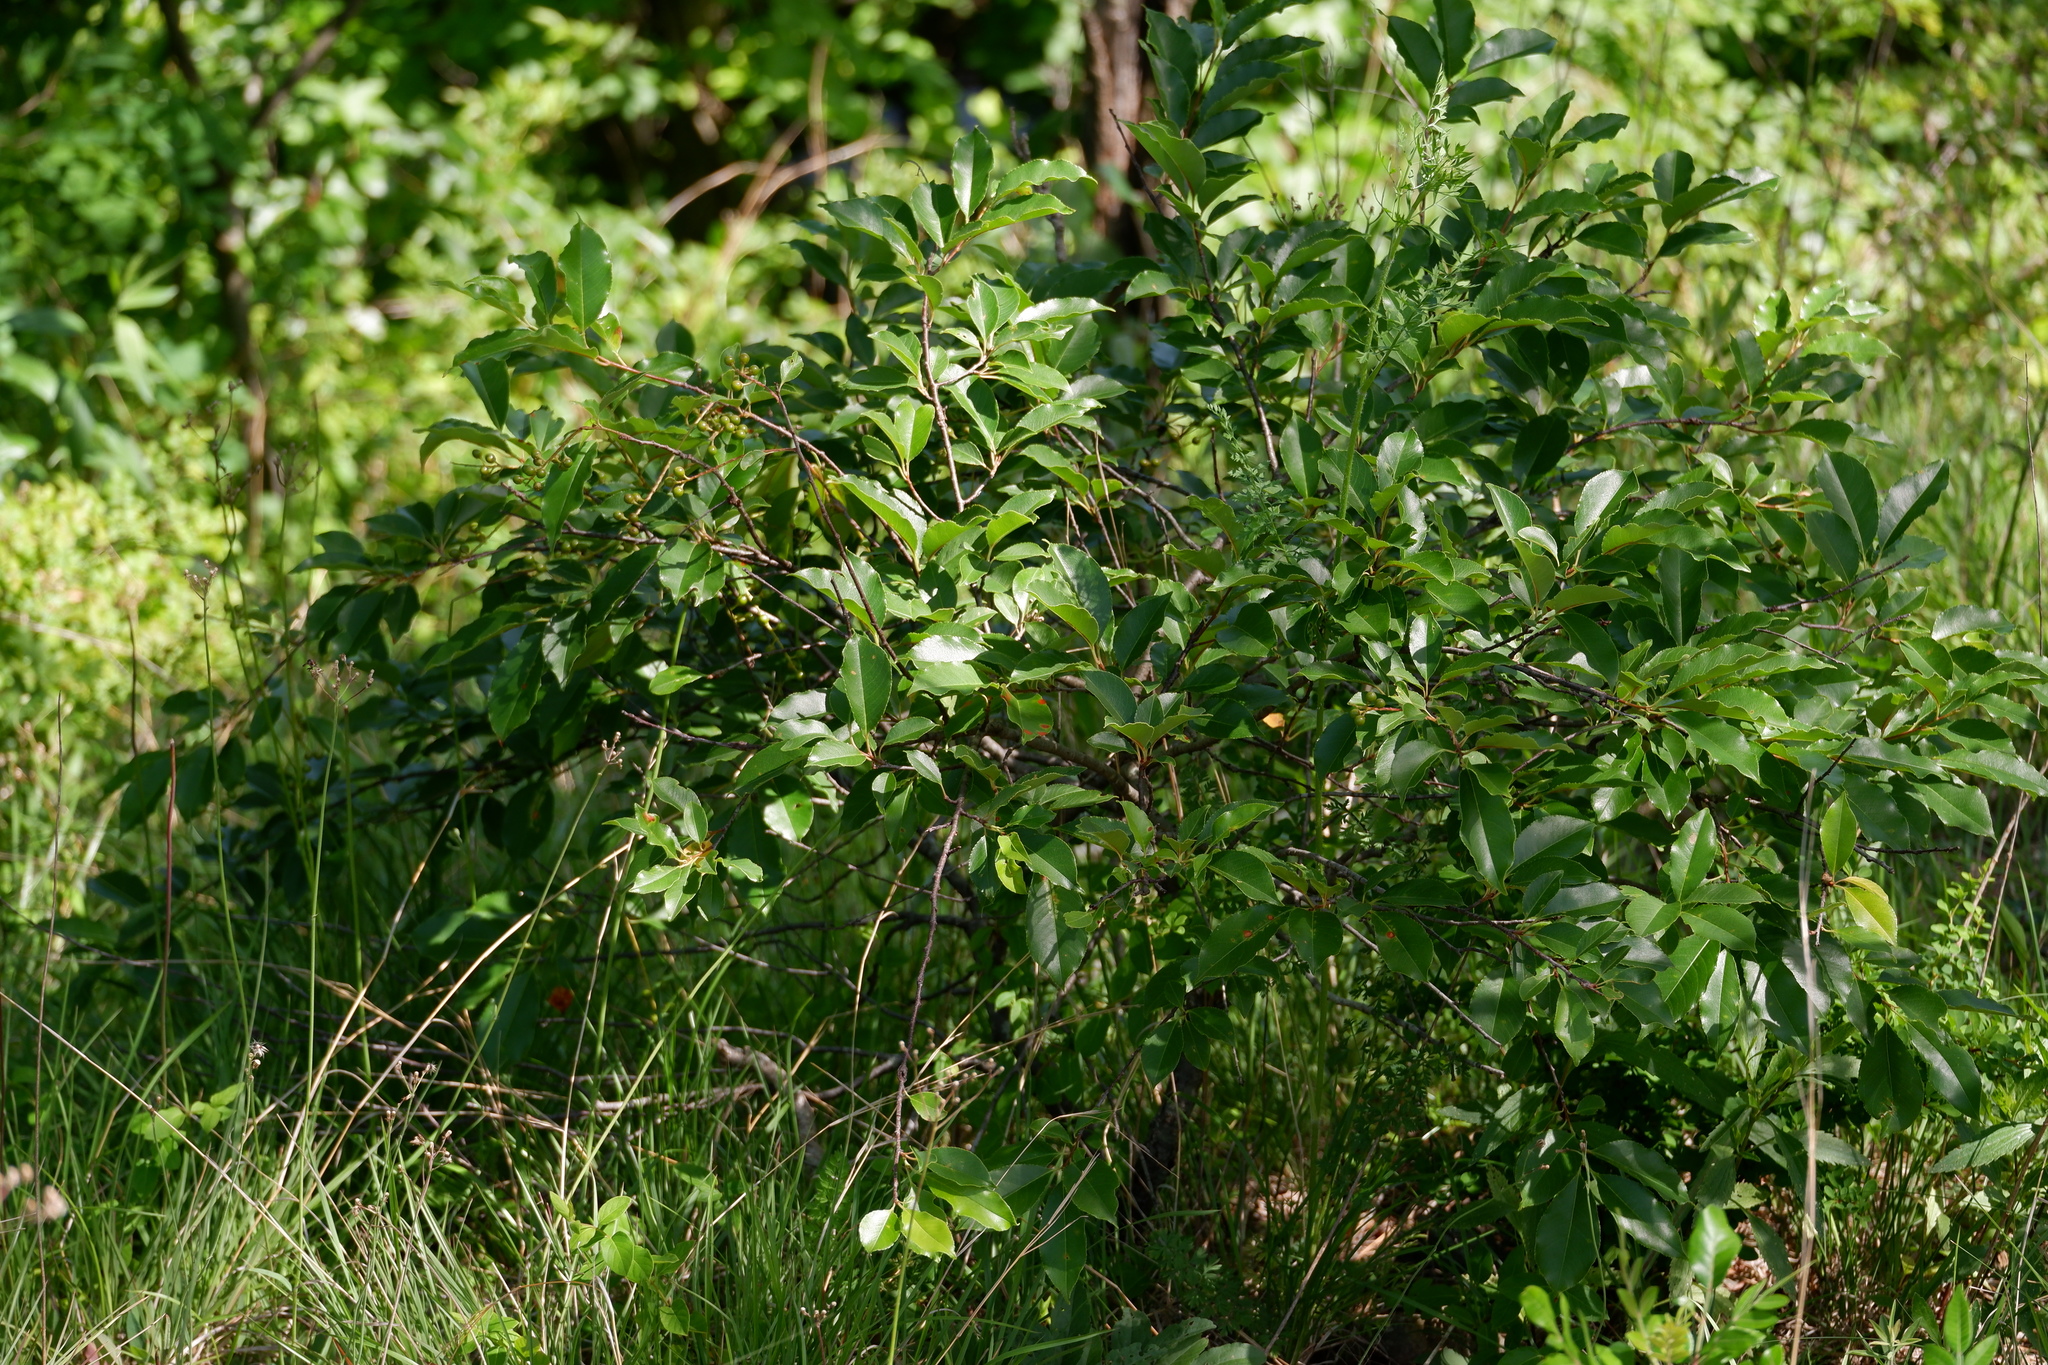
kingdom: Plantae
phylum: Tracheophyta
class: Magnoliopsida
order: Rosales
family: Rosaceae
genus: Prunus
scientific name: Prunus serotina
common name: Black cherry
